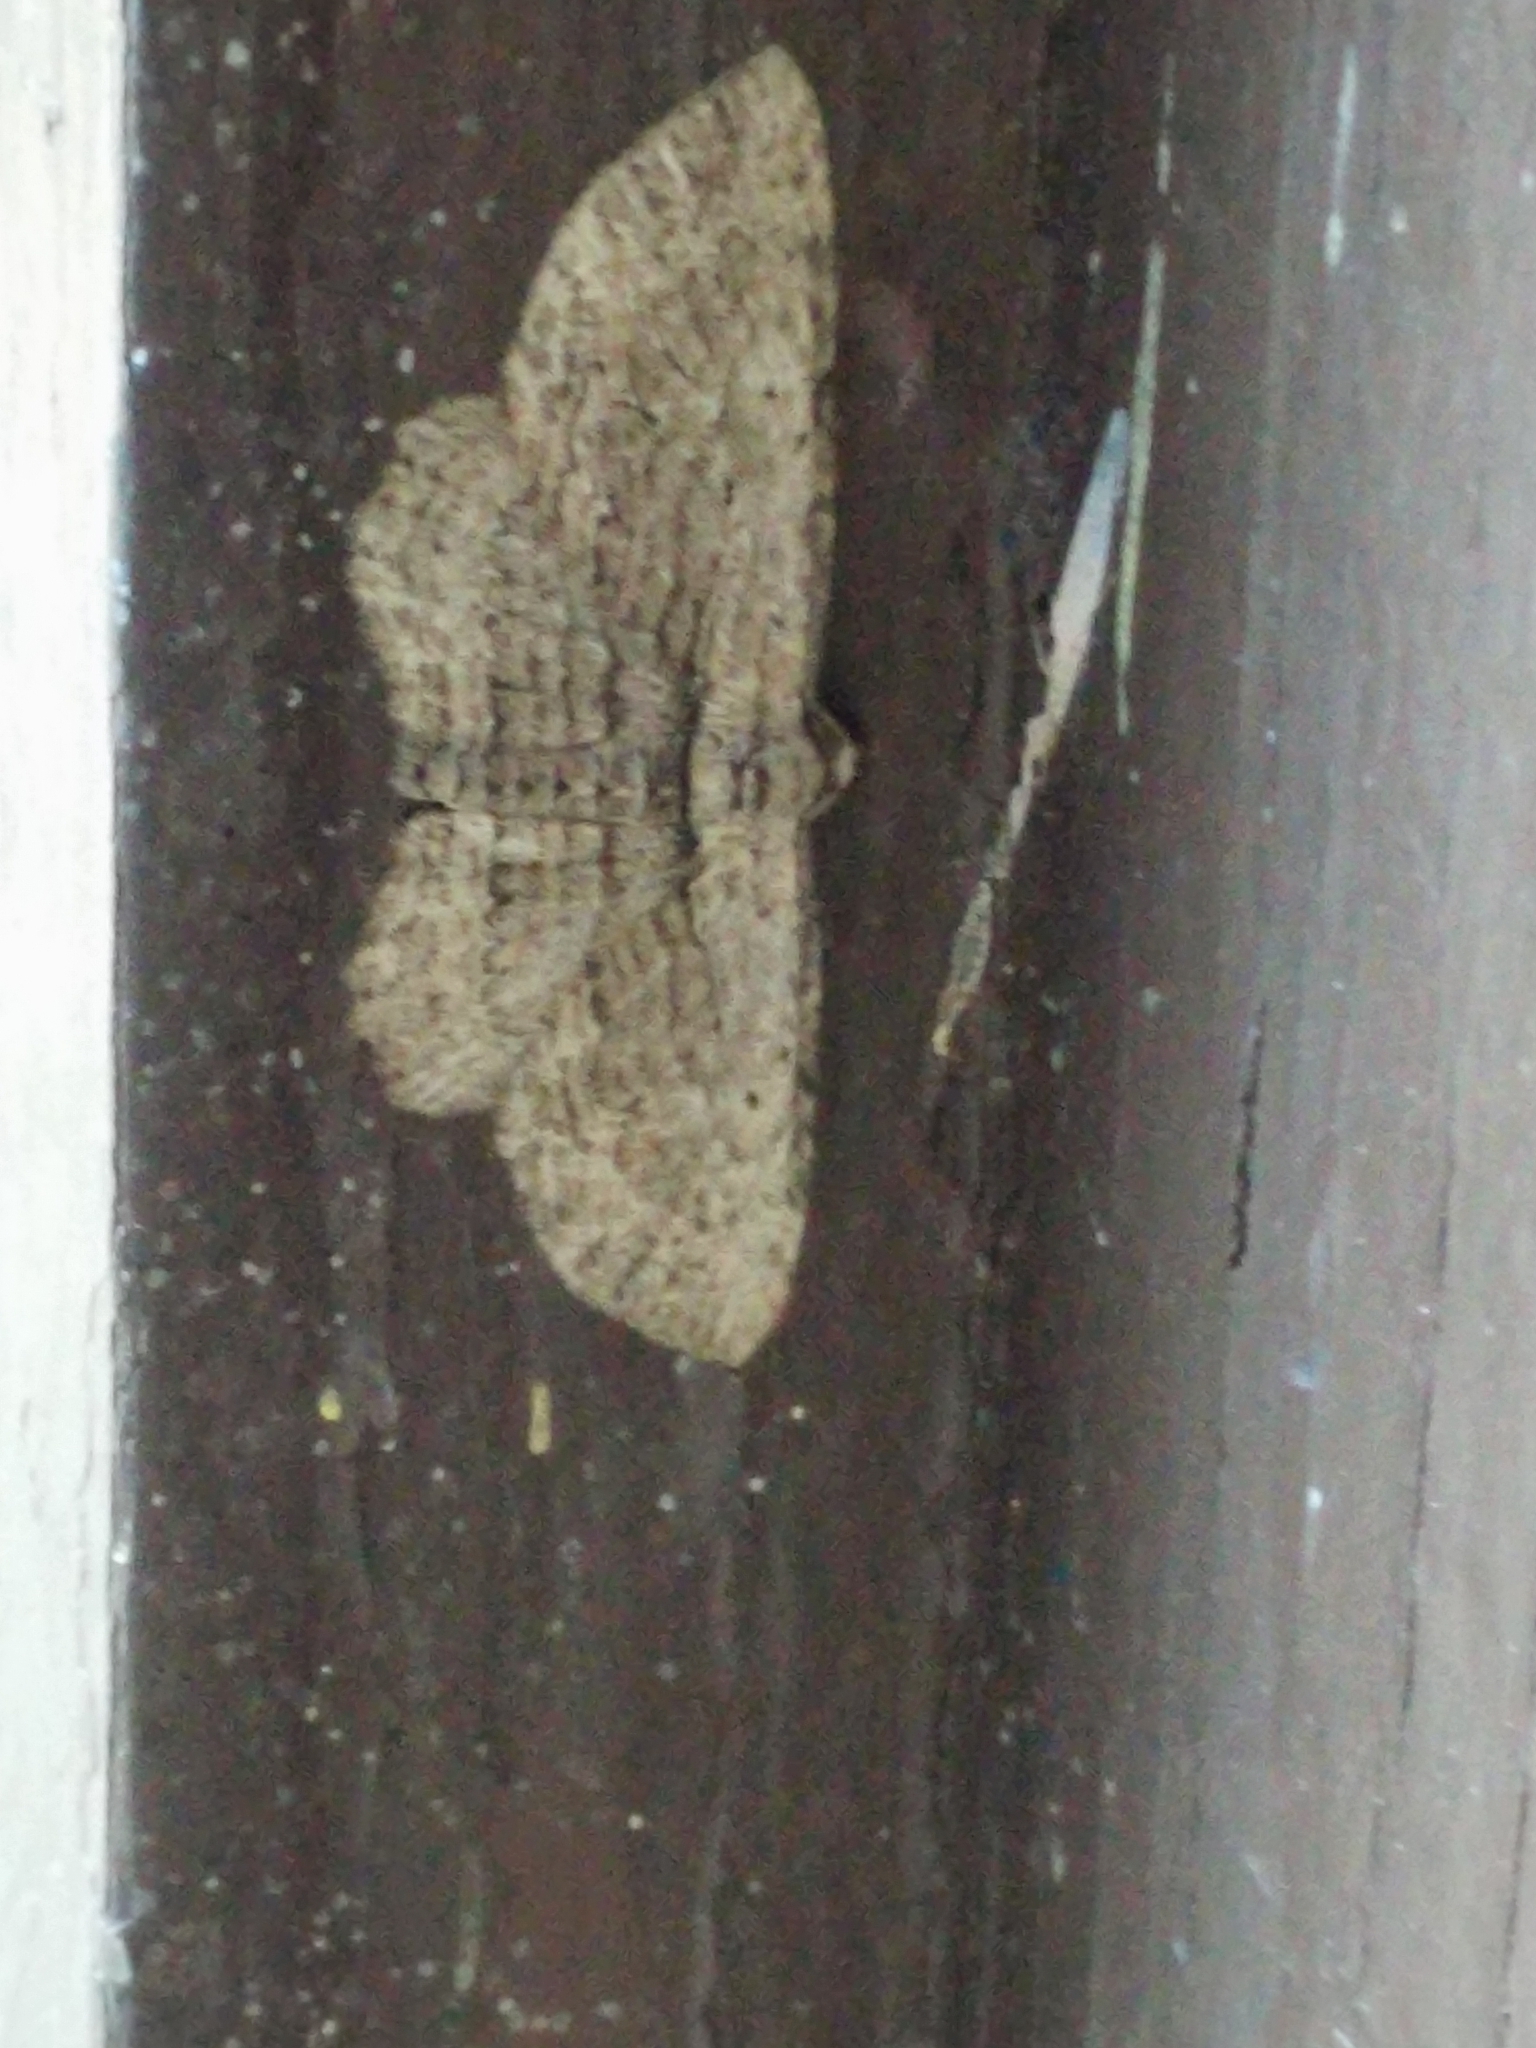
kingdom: Animalia
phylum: Arthropoda
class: Insecta
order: Lepidoptera
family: Geometridae
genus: Horisme
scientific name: Horisme intestinata
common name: Brown bark carpet
